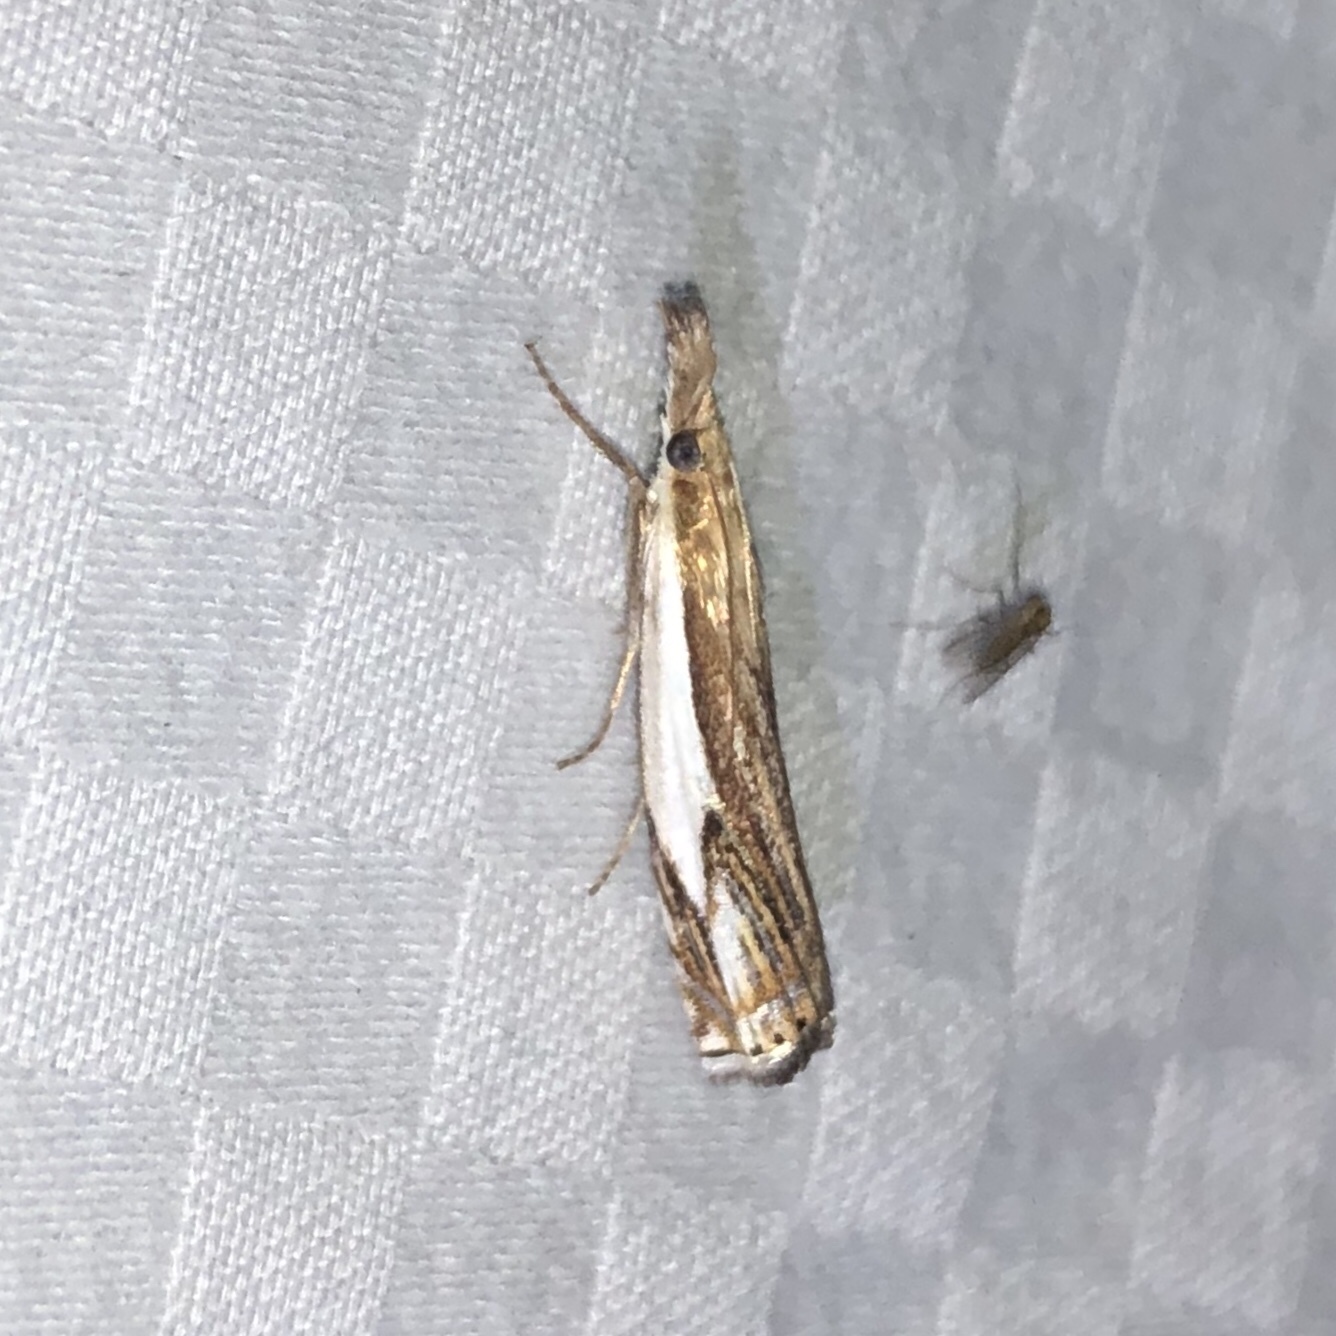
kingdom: Animalia
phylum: Arthropoda
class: Insecta
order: Lepidoptera
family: Crambidae
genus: Crambus
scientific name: Crambus agitatellus
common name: Double-banded grass-veneer
